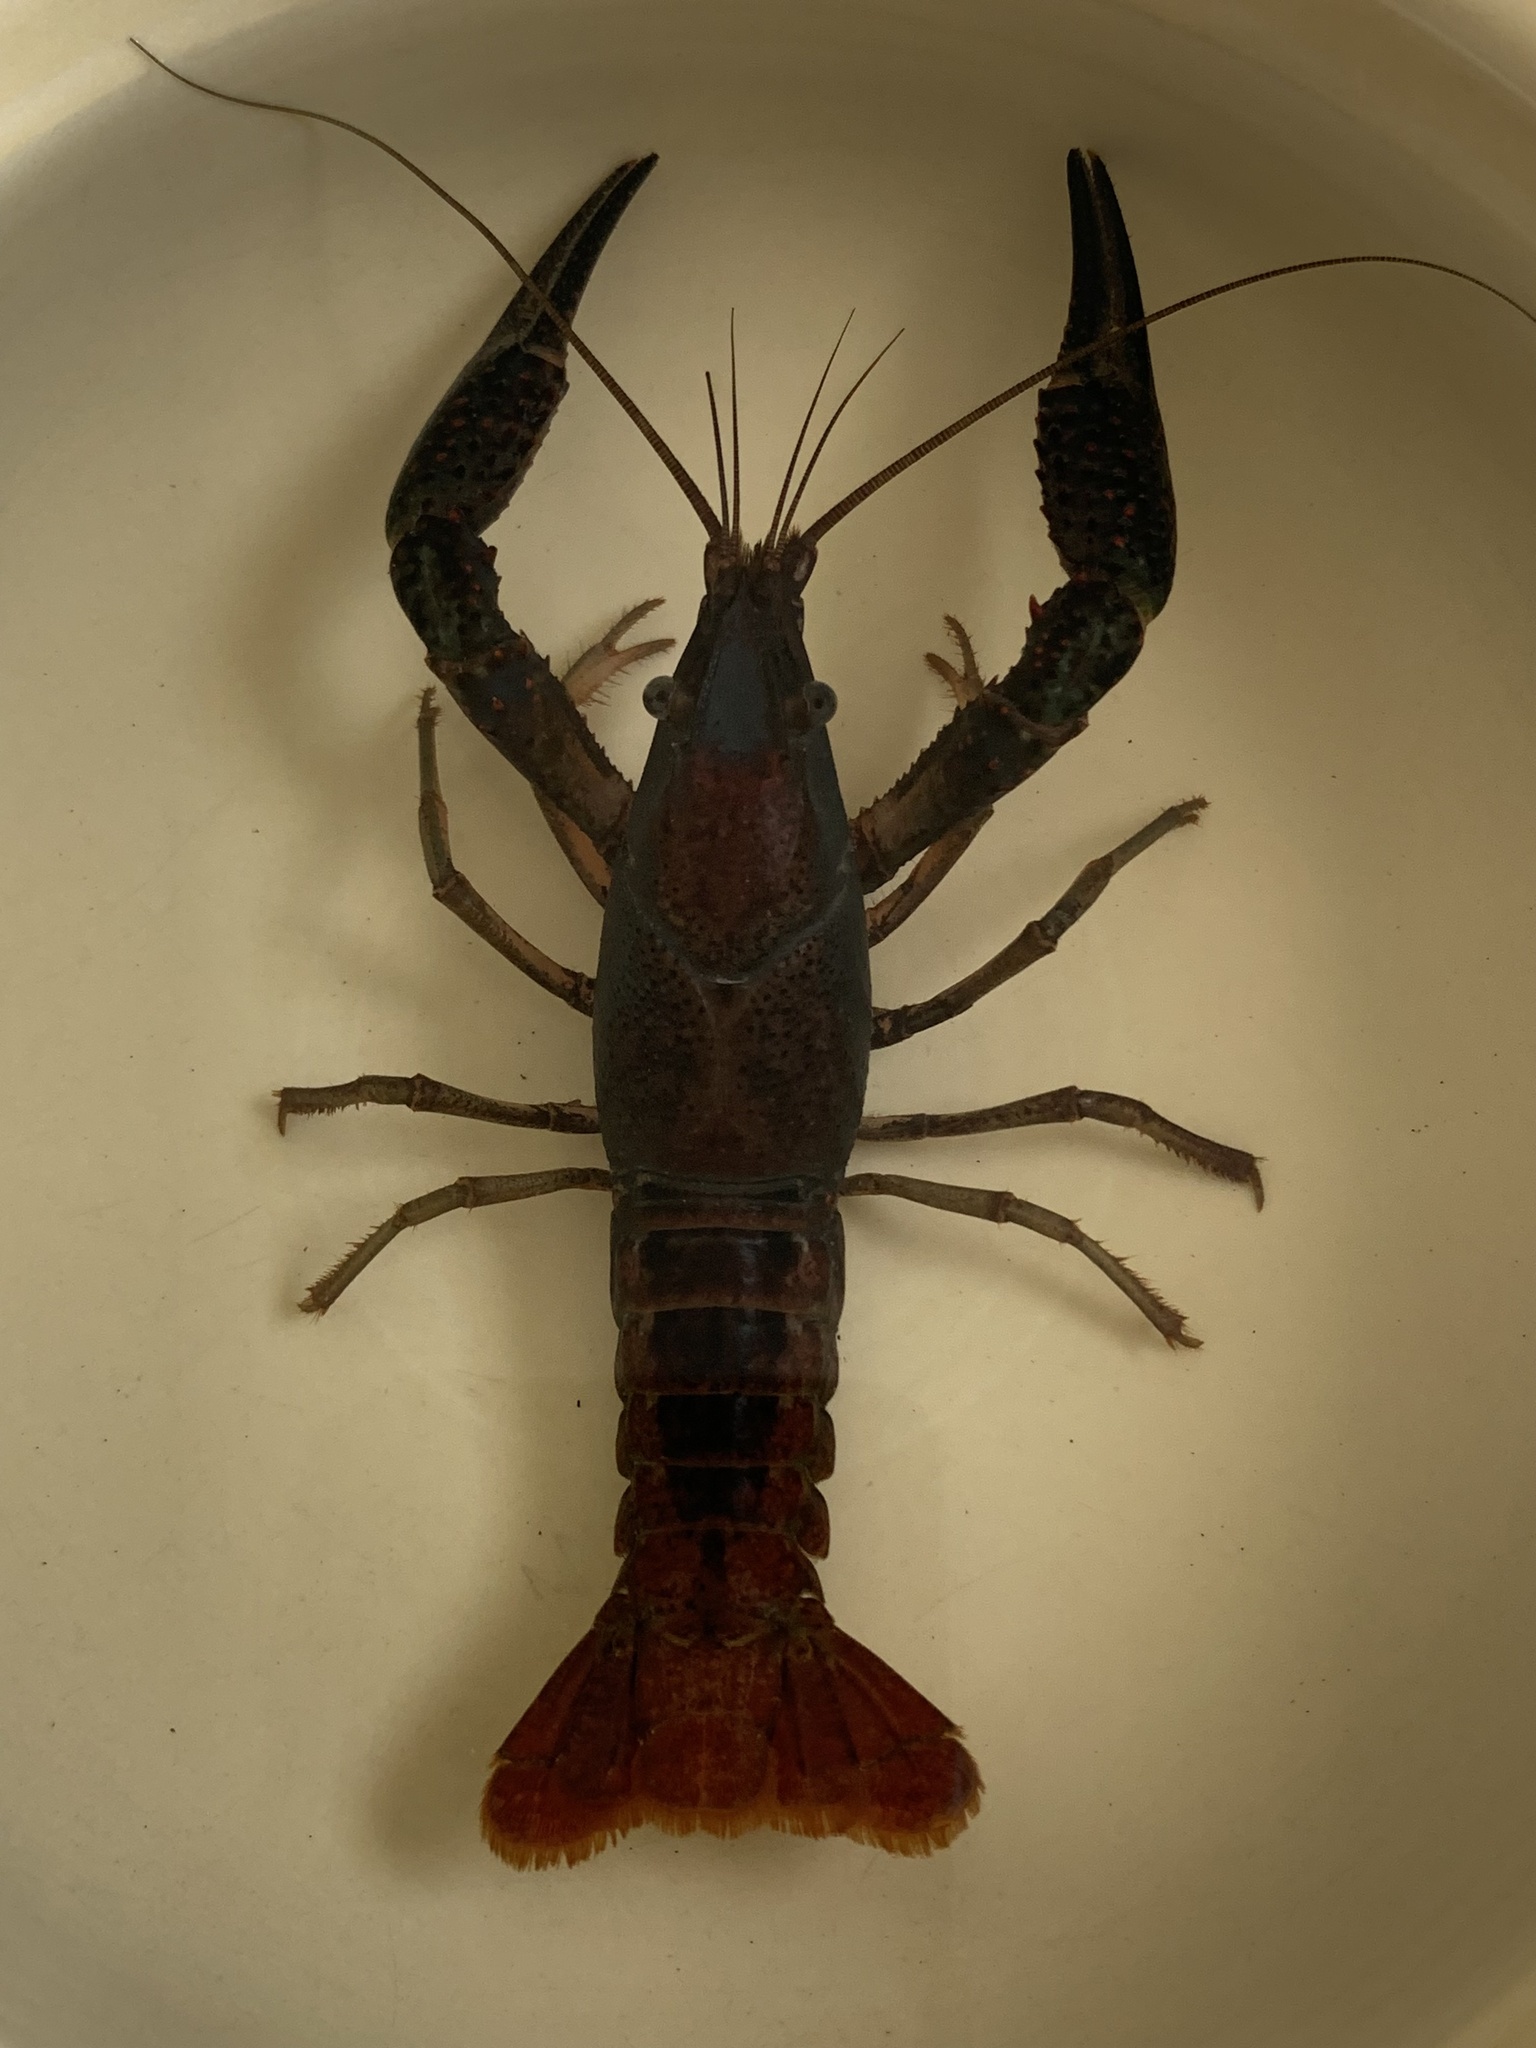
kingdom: Animalia
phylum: Arthropoda
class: Malacostraca
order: Decapoda
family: Cambaridae
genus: Procambarus
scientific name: Procambarus clarkii
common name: Red swamp crayfish
